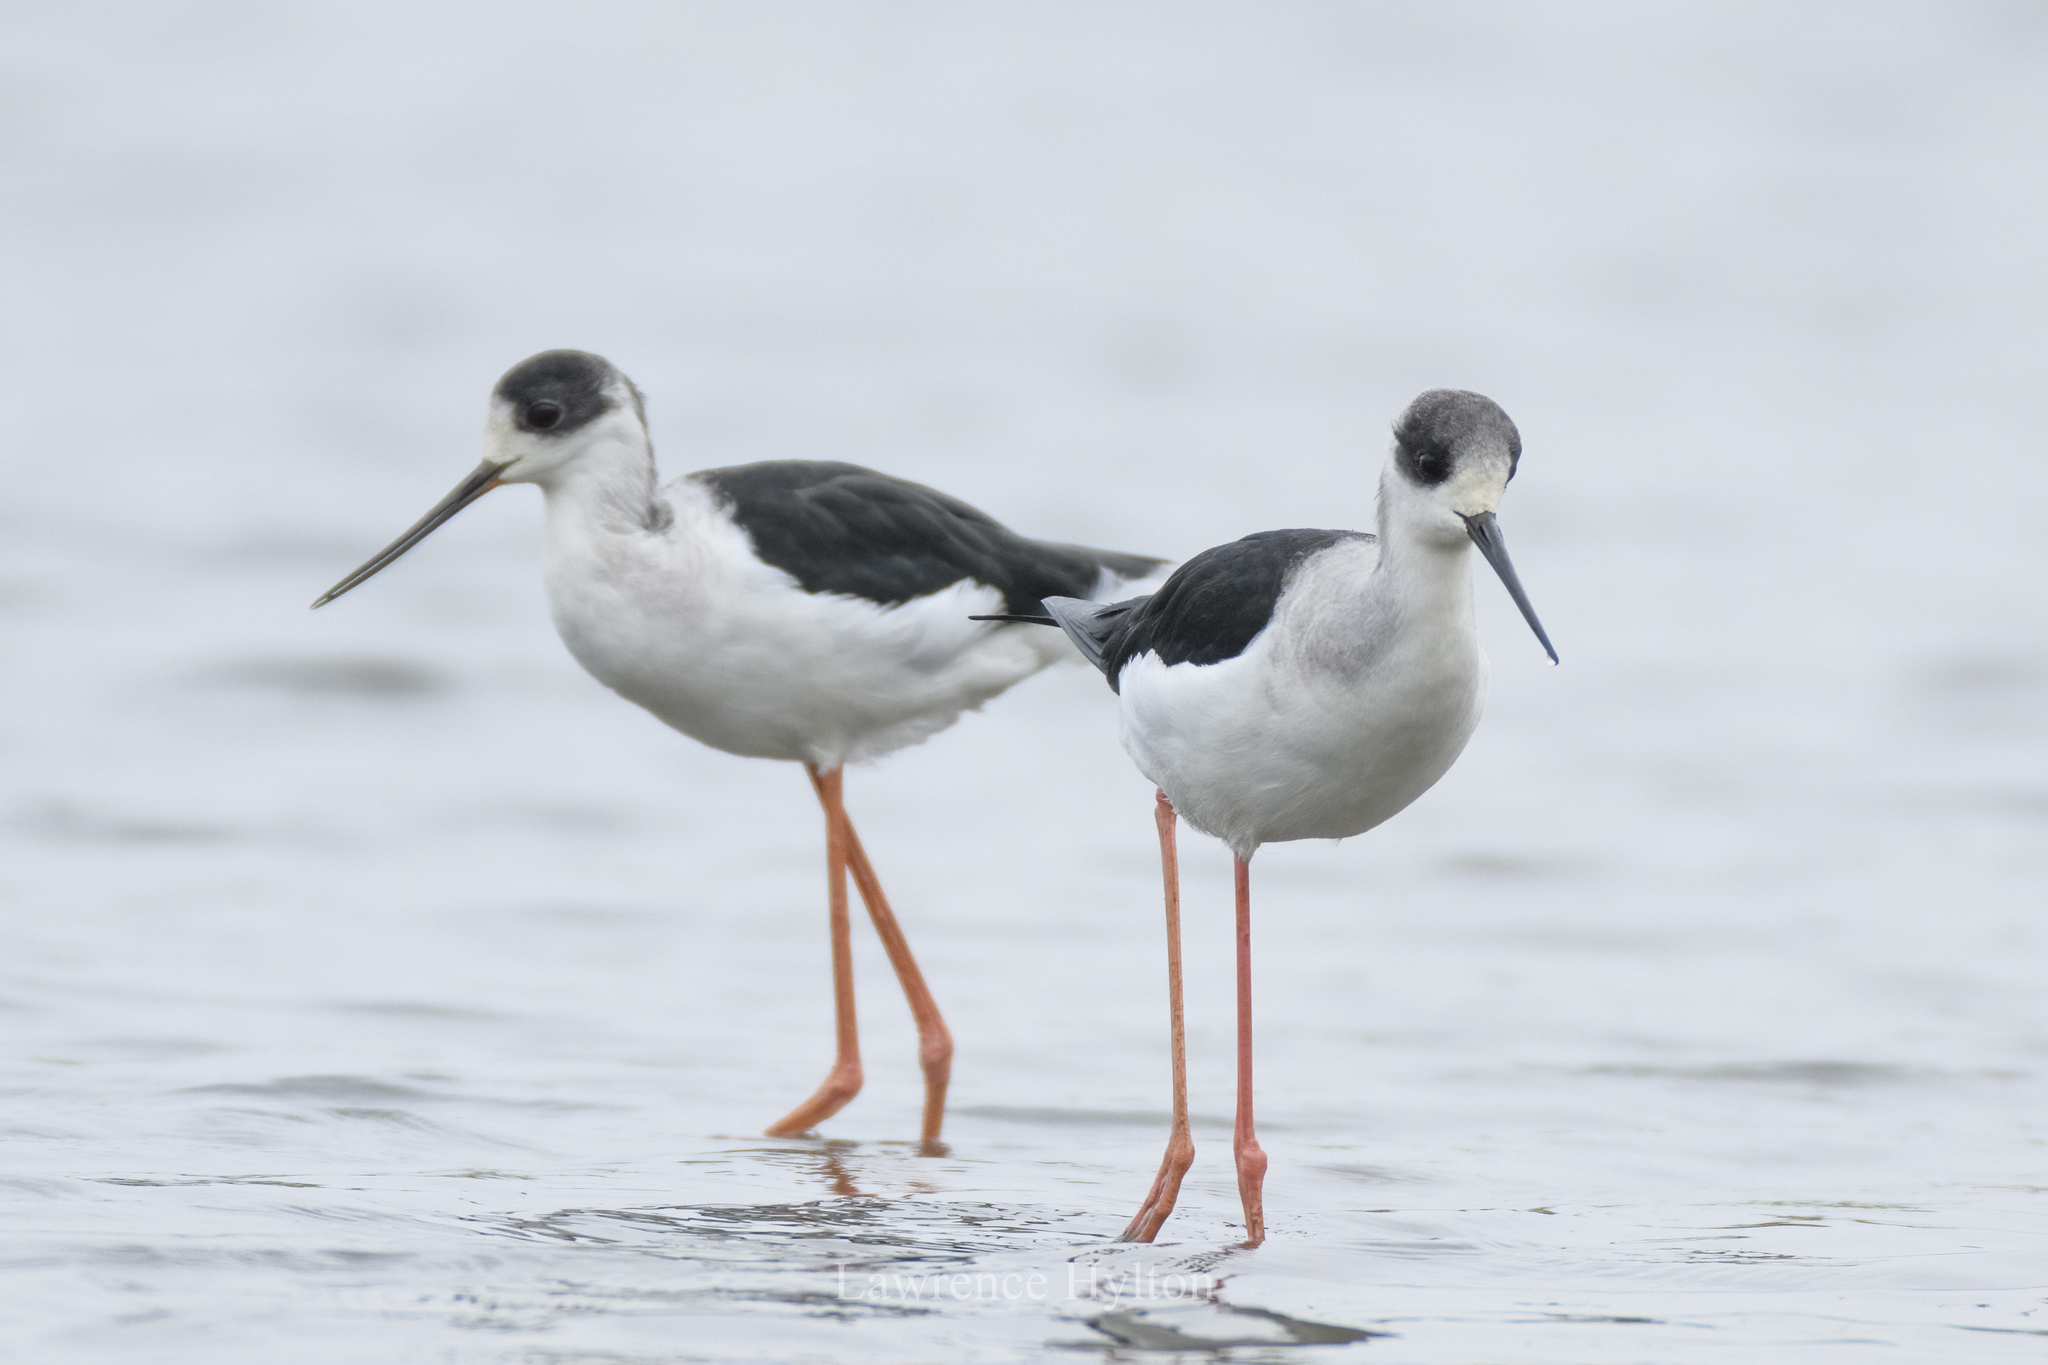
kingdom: Animalia
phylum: Chordata
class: Aves
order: Charadriiformes
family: Recurvirostridae
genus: Himantopus
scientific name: Himantopus himantopus
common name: Black-winged stilt
